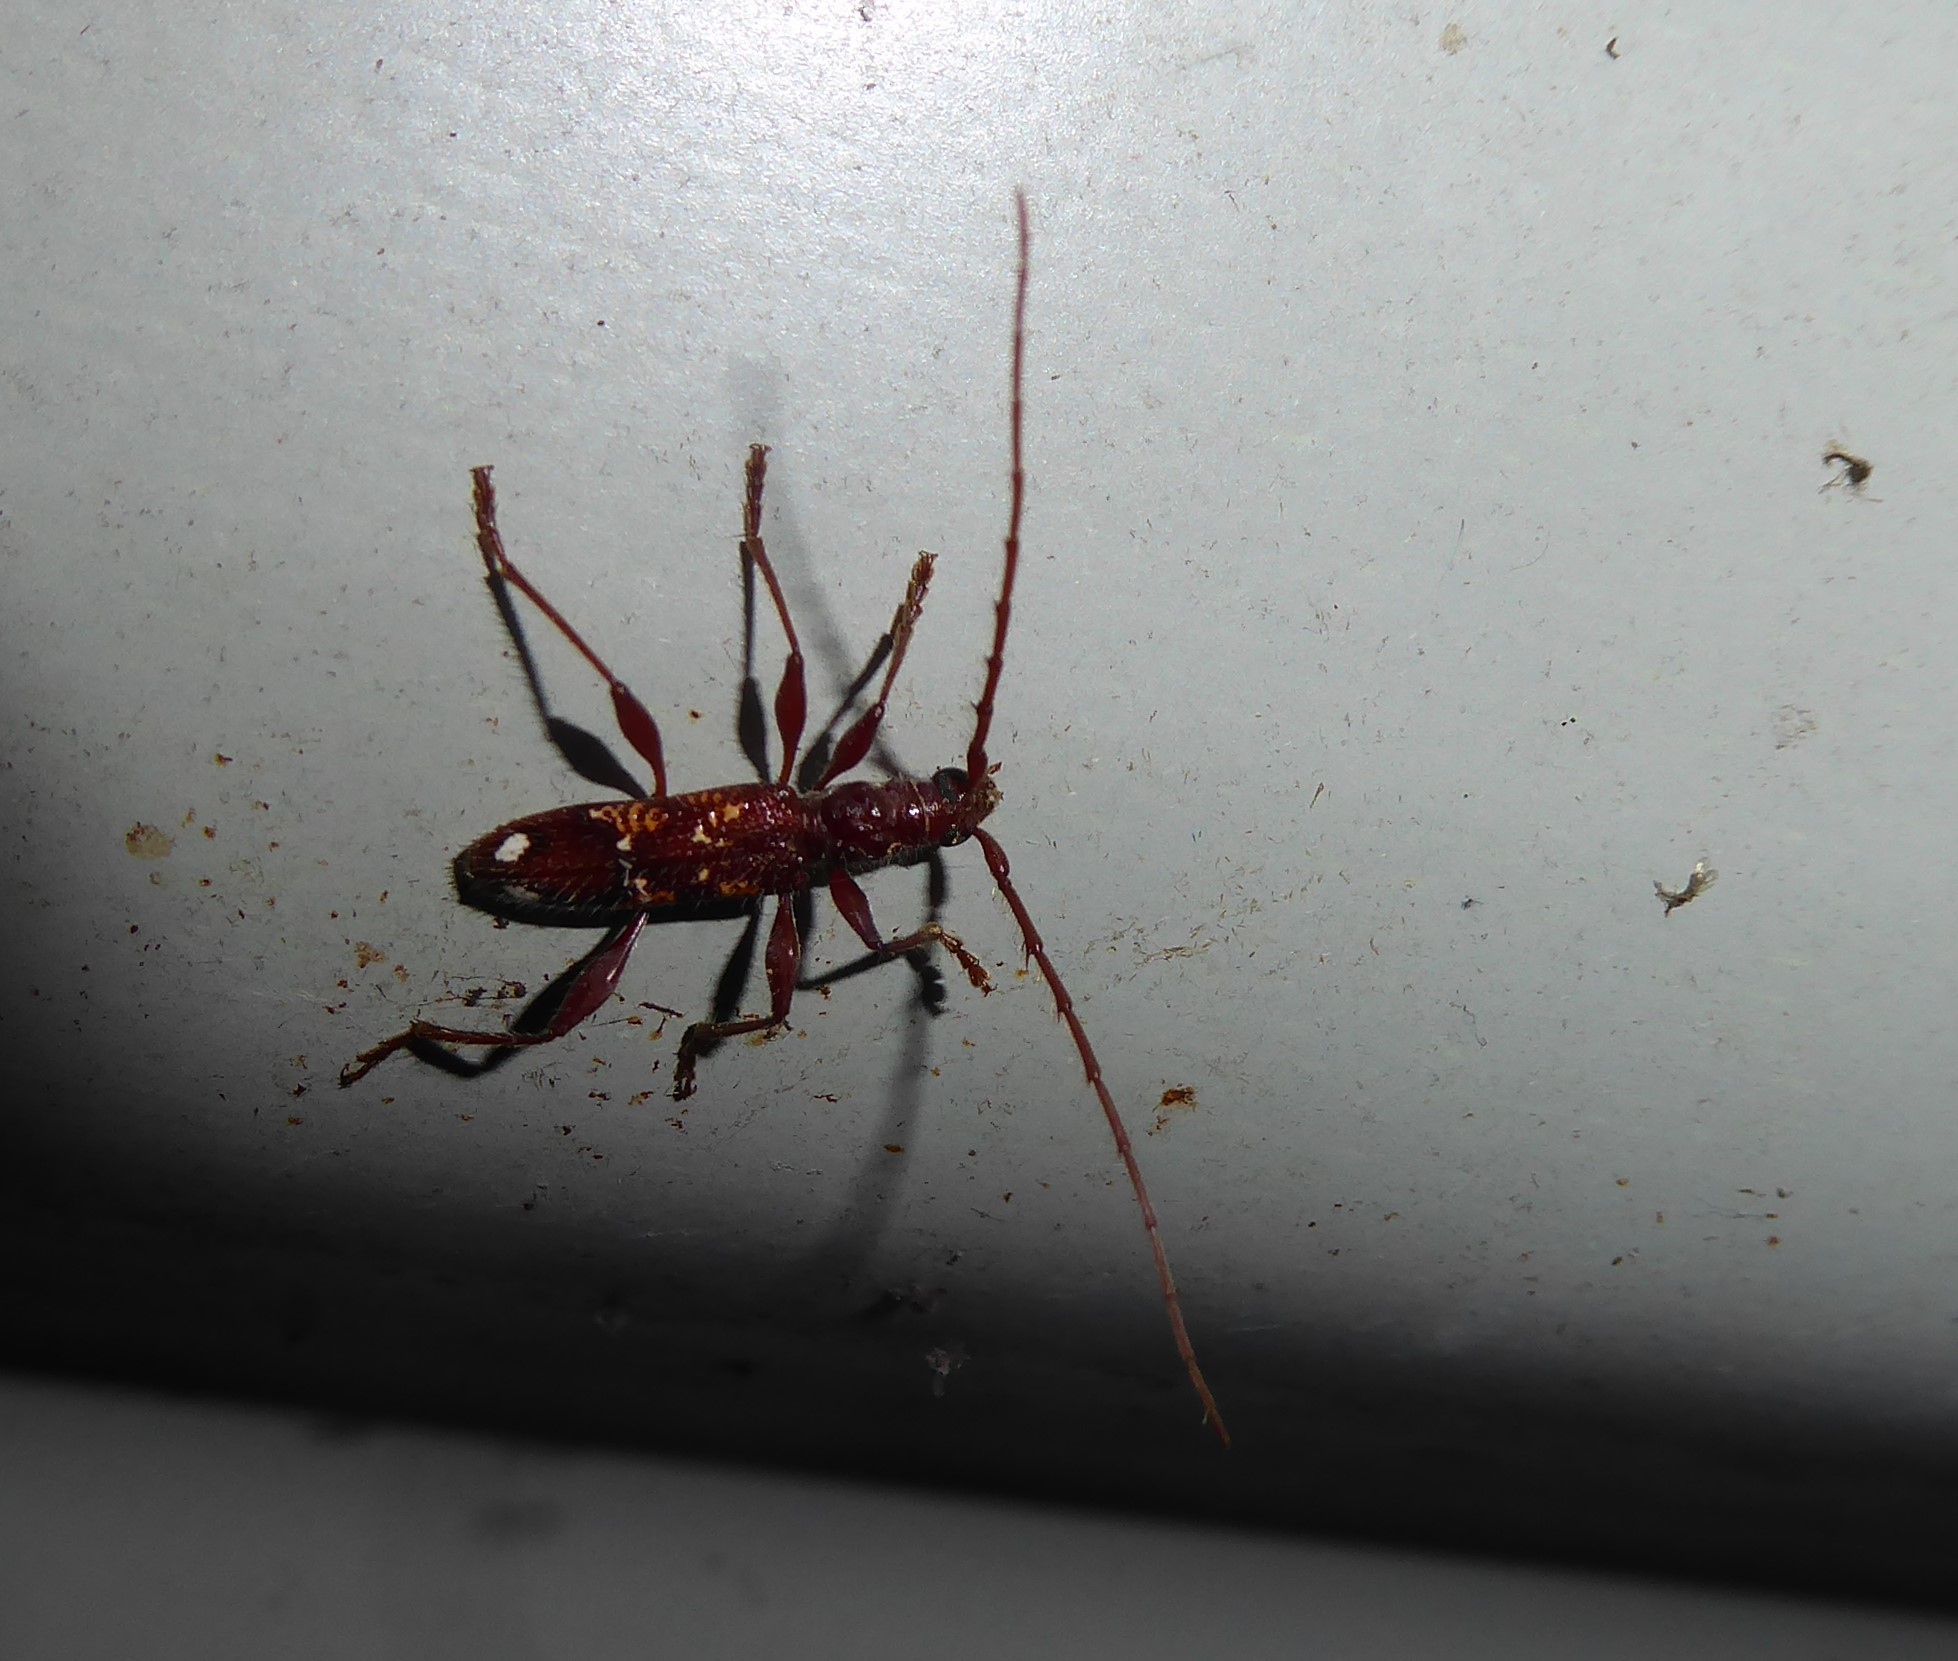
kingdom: Animalia
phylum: Arthropoda
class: Insecta
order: Coleoptera
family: Cerambycidae
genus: Coptocercus
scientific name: Coptocercus biguttatus
